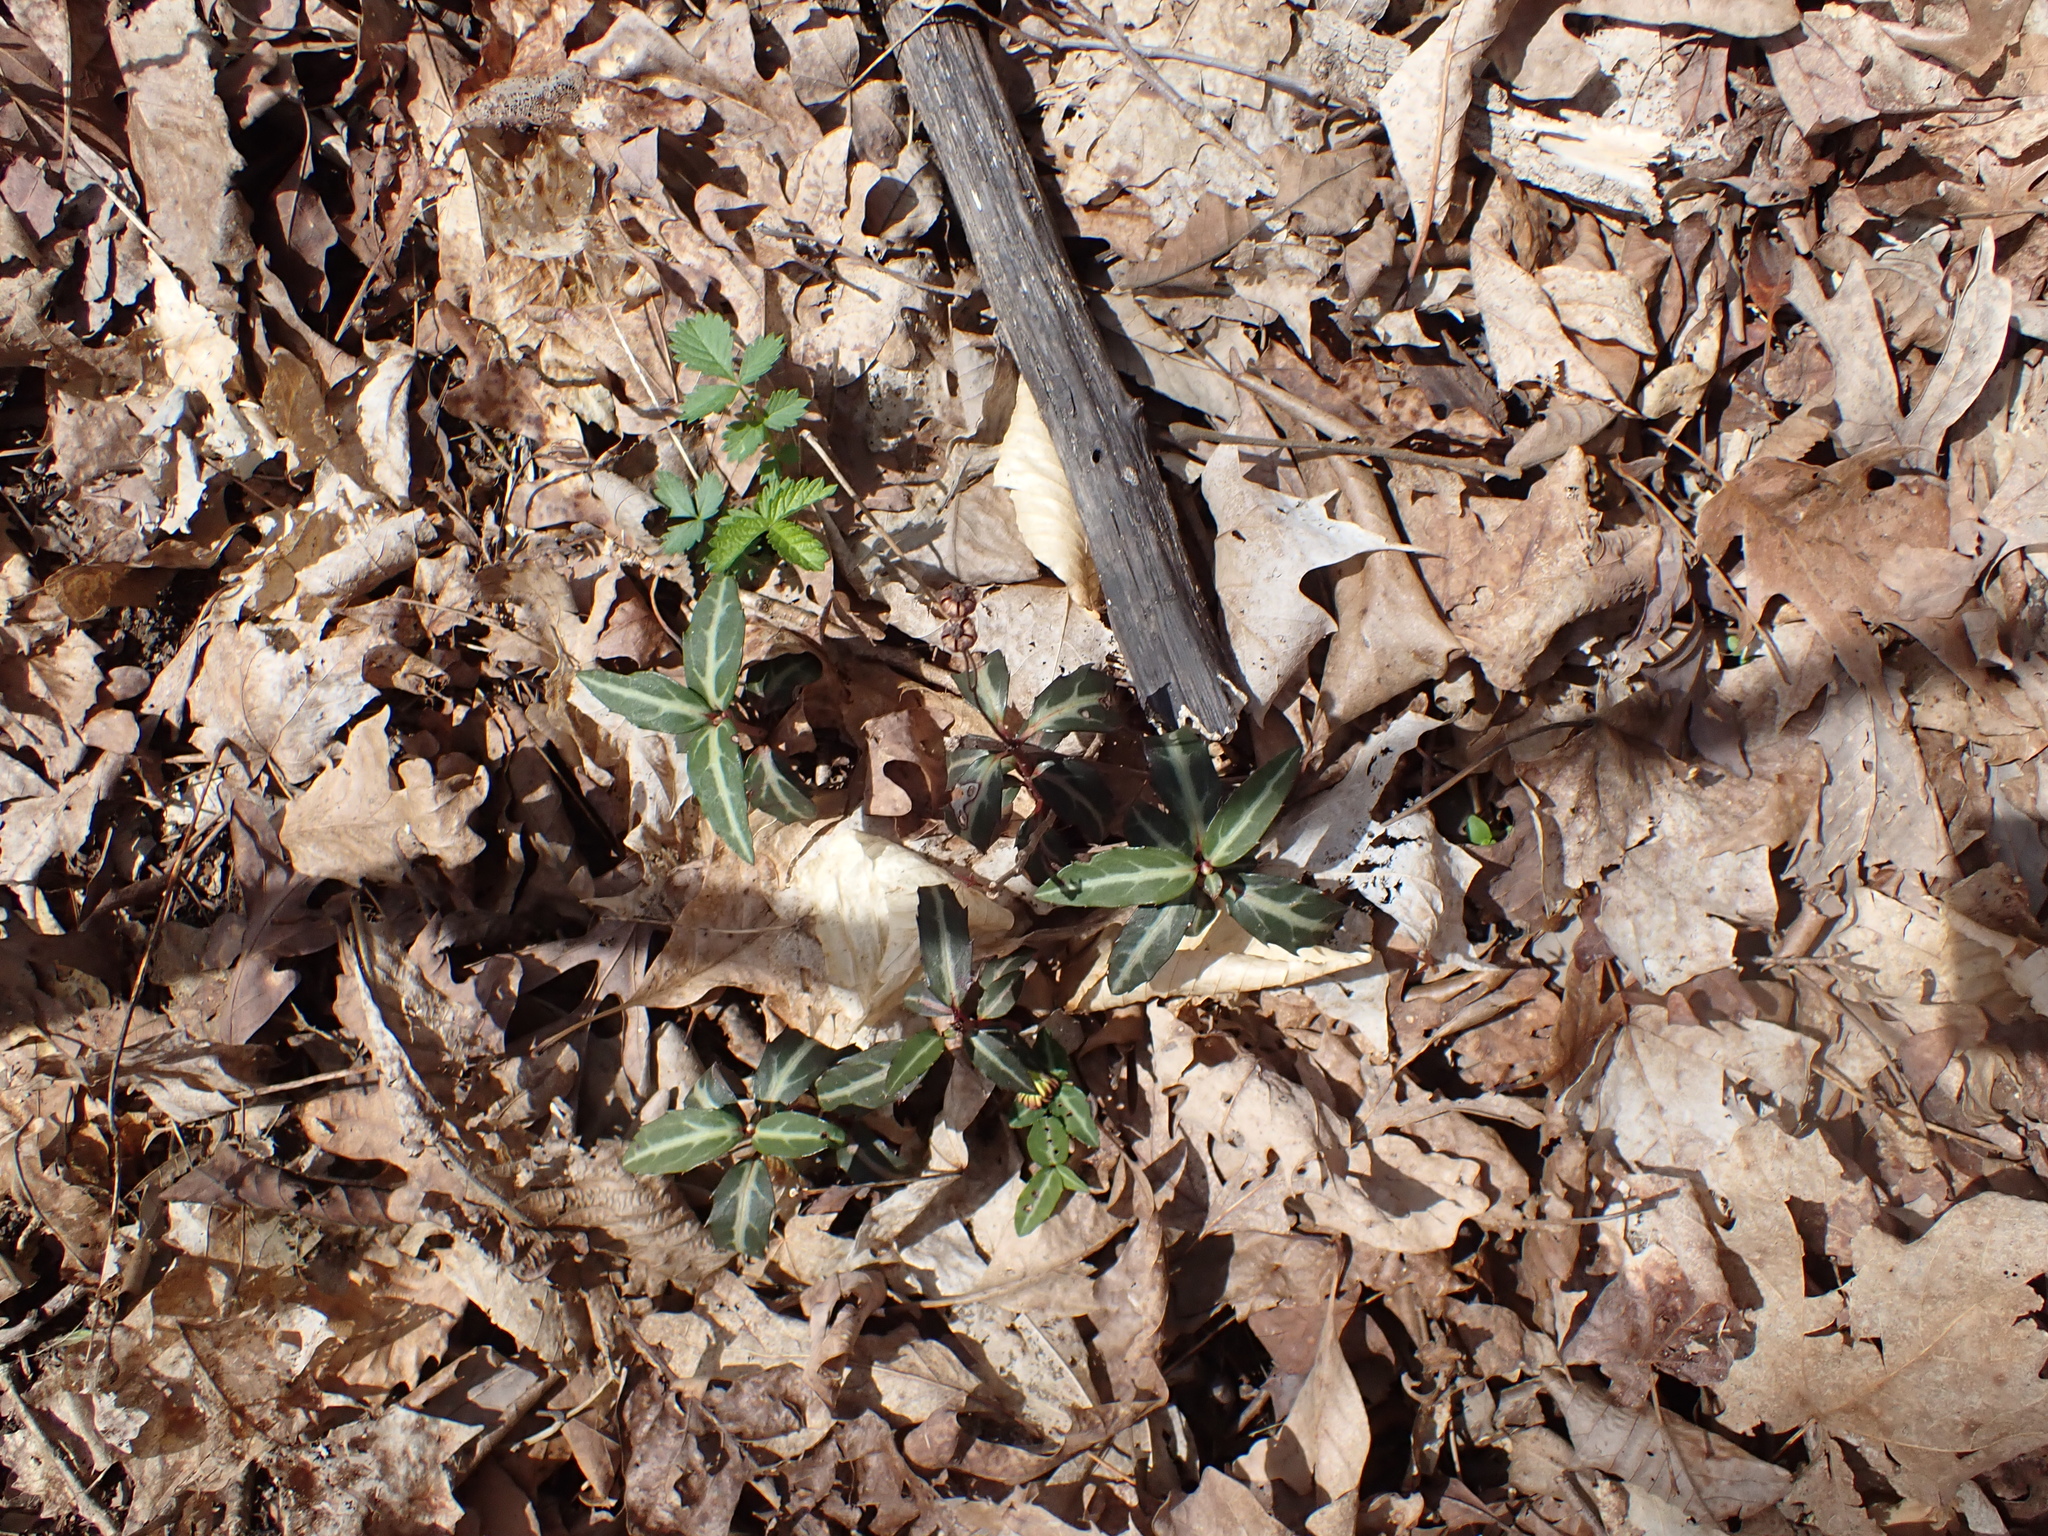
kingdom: Plantae
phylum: Tracheophyta
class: Magnoliopsida
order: Ericales
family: Ericaceae
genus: Chimaphila
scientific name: Chimaphila maculata
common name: Spotted pipsissewa
